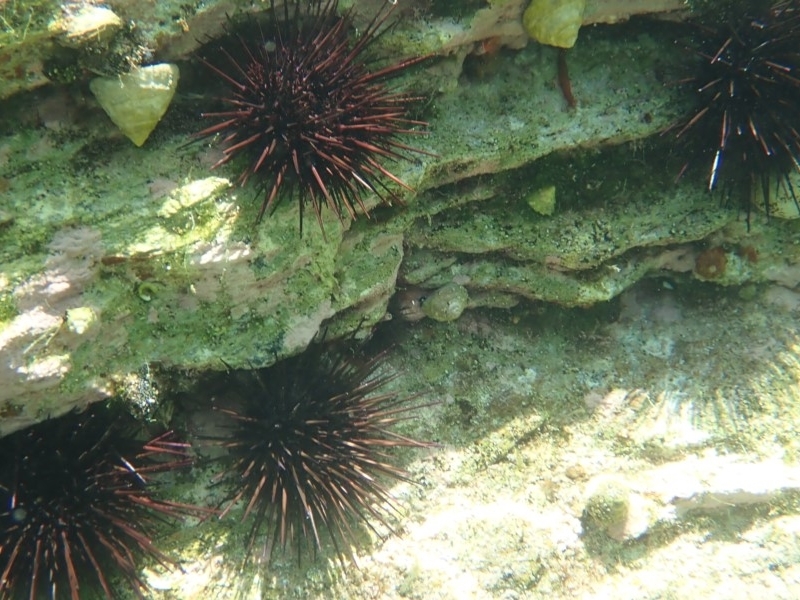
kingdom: Animalia
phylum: Echinodermata
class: Echinoidea
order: Diadematoida
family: Diadematidae
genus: Centrostephanus
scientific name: Centrostephanus rodgersii
